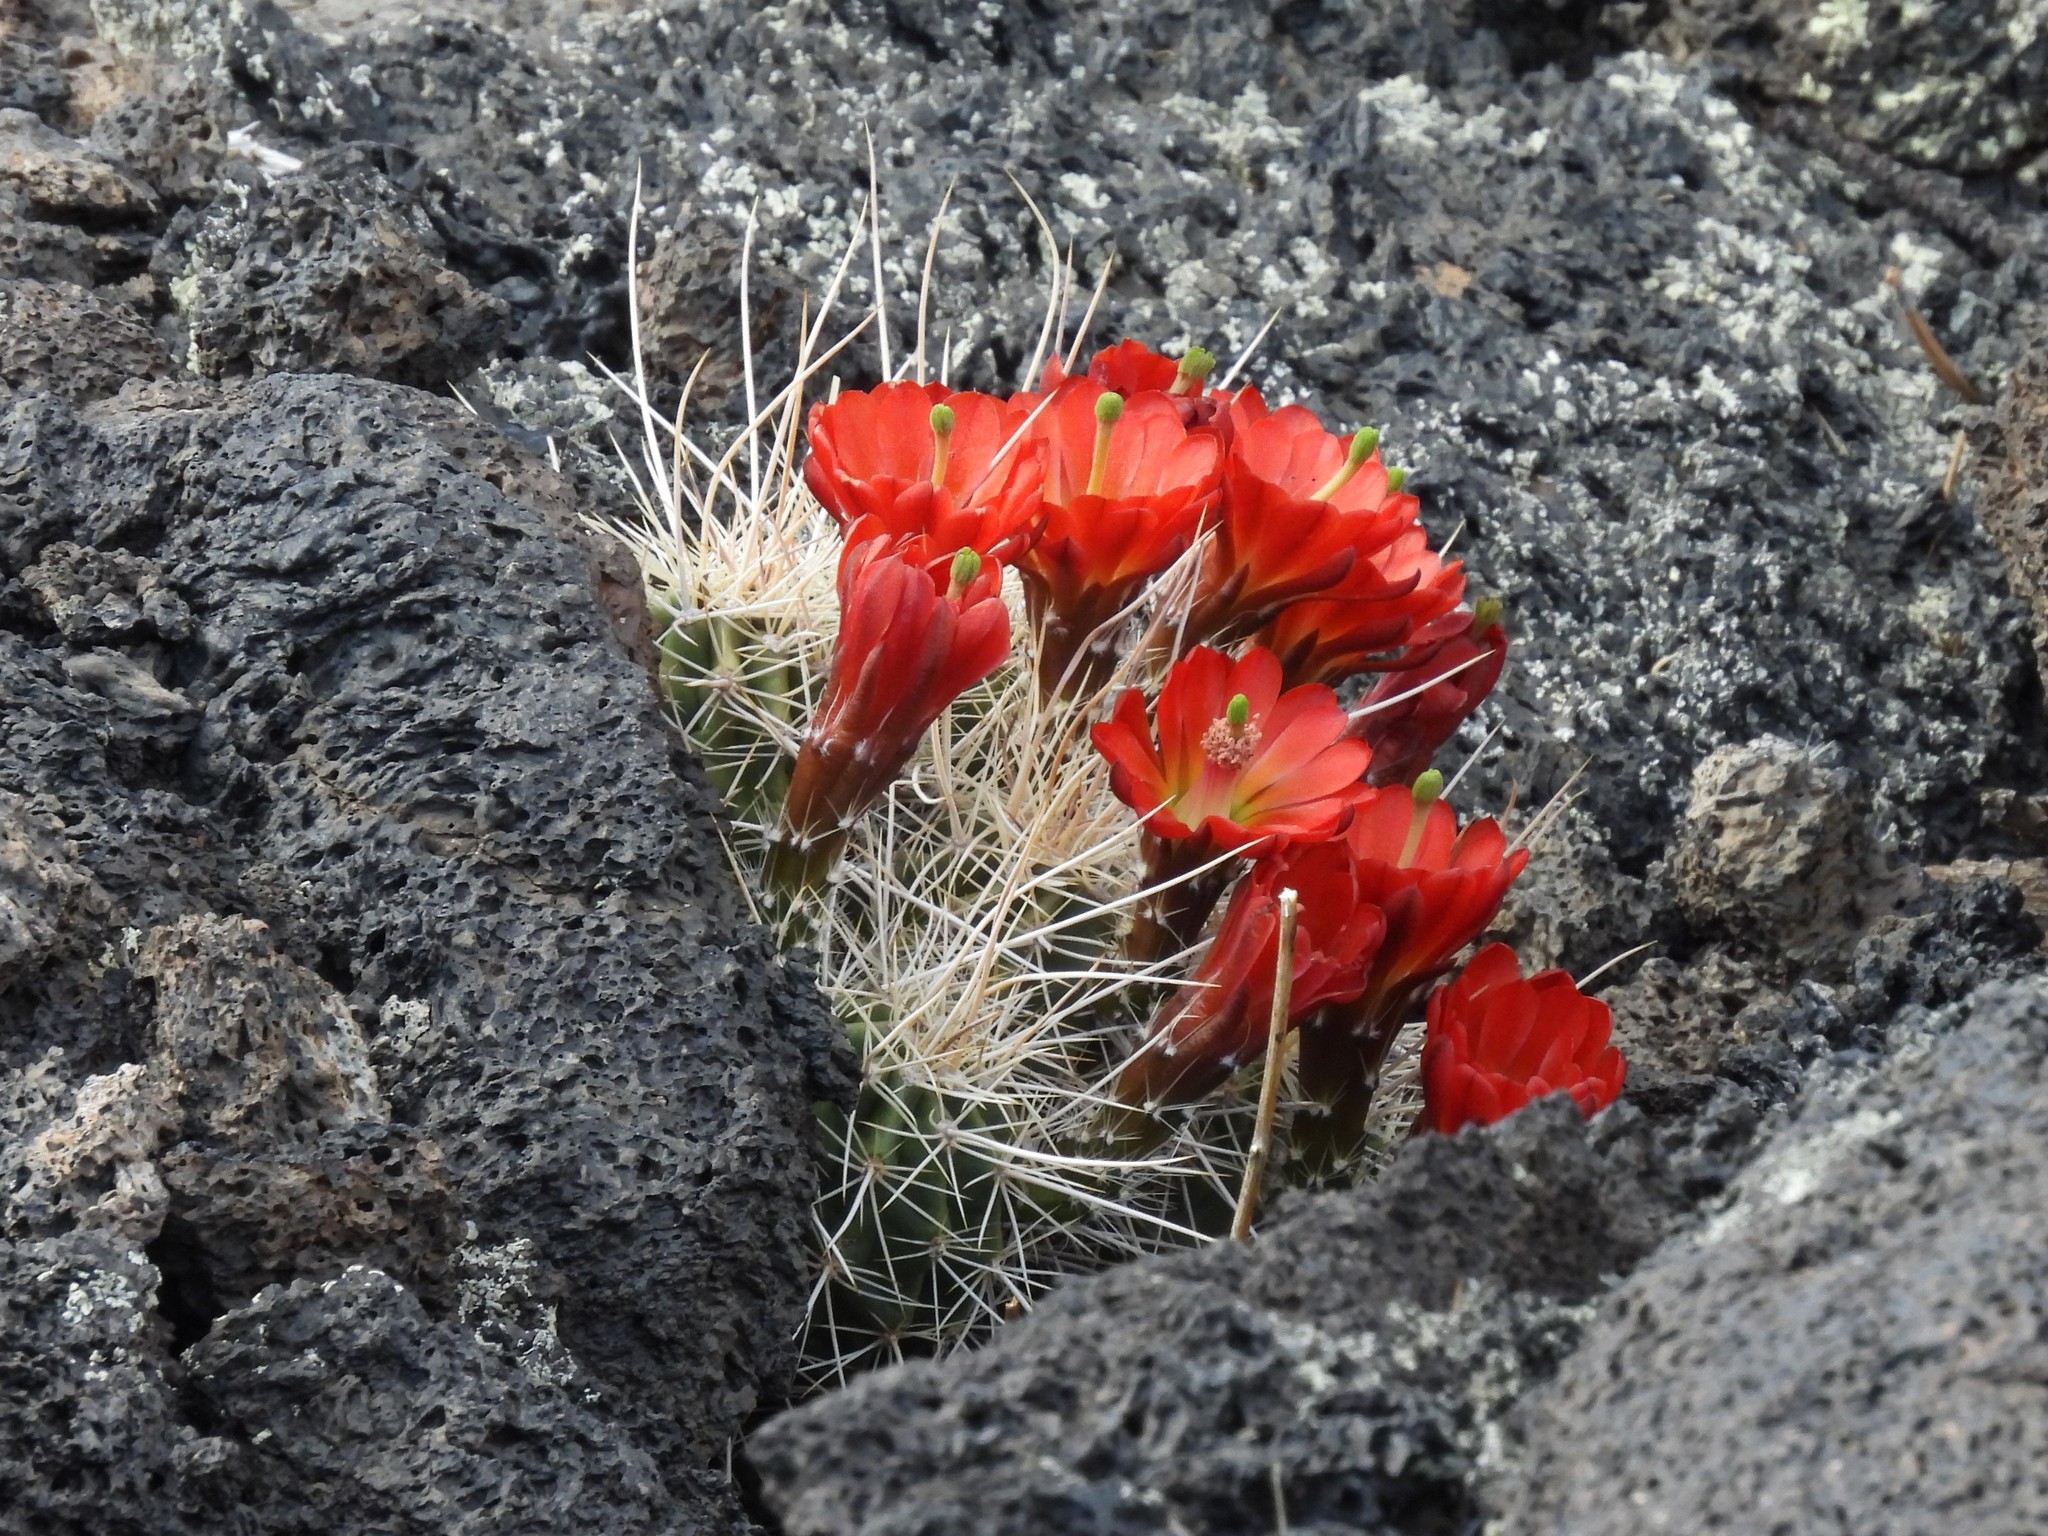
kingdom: Plantae
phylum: Tracheophyta
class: Magnoliopsida
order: Caryophyllales
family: Cactaceae
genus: Echinocereus
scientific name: Echinocereus bakeri
